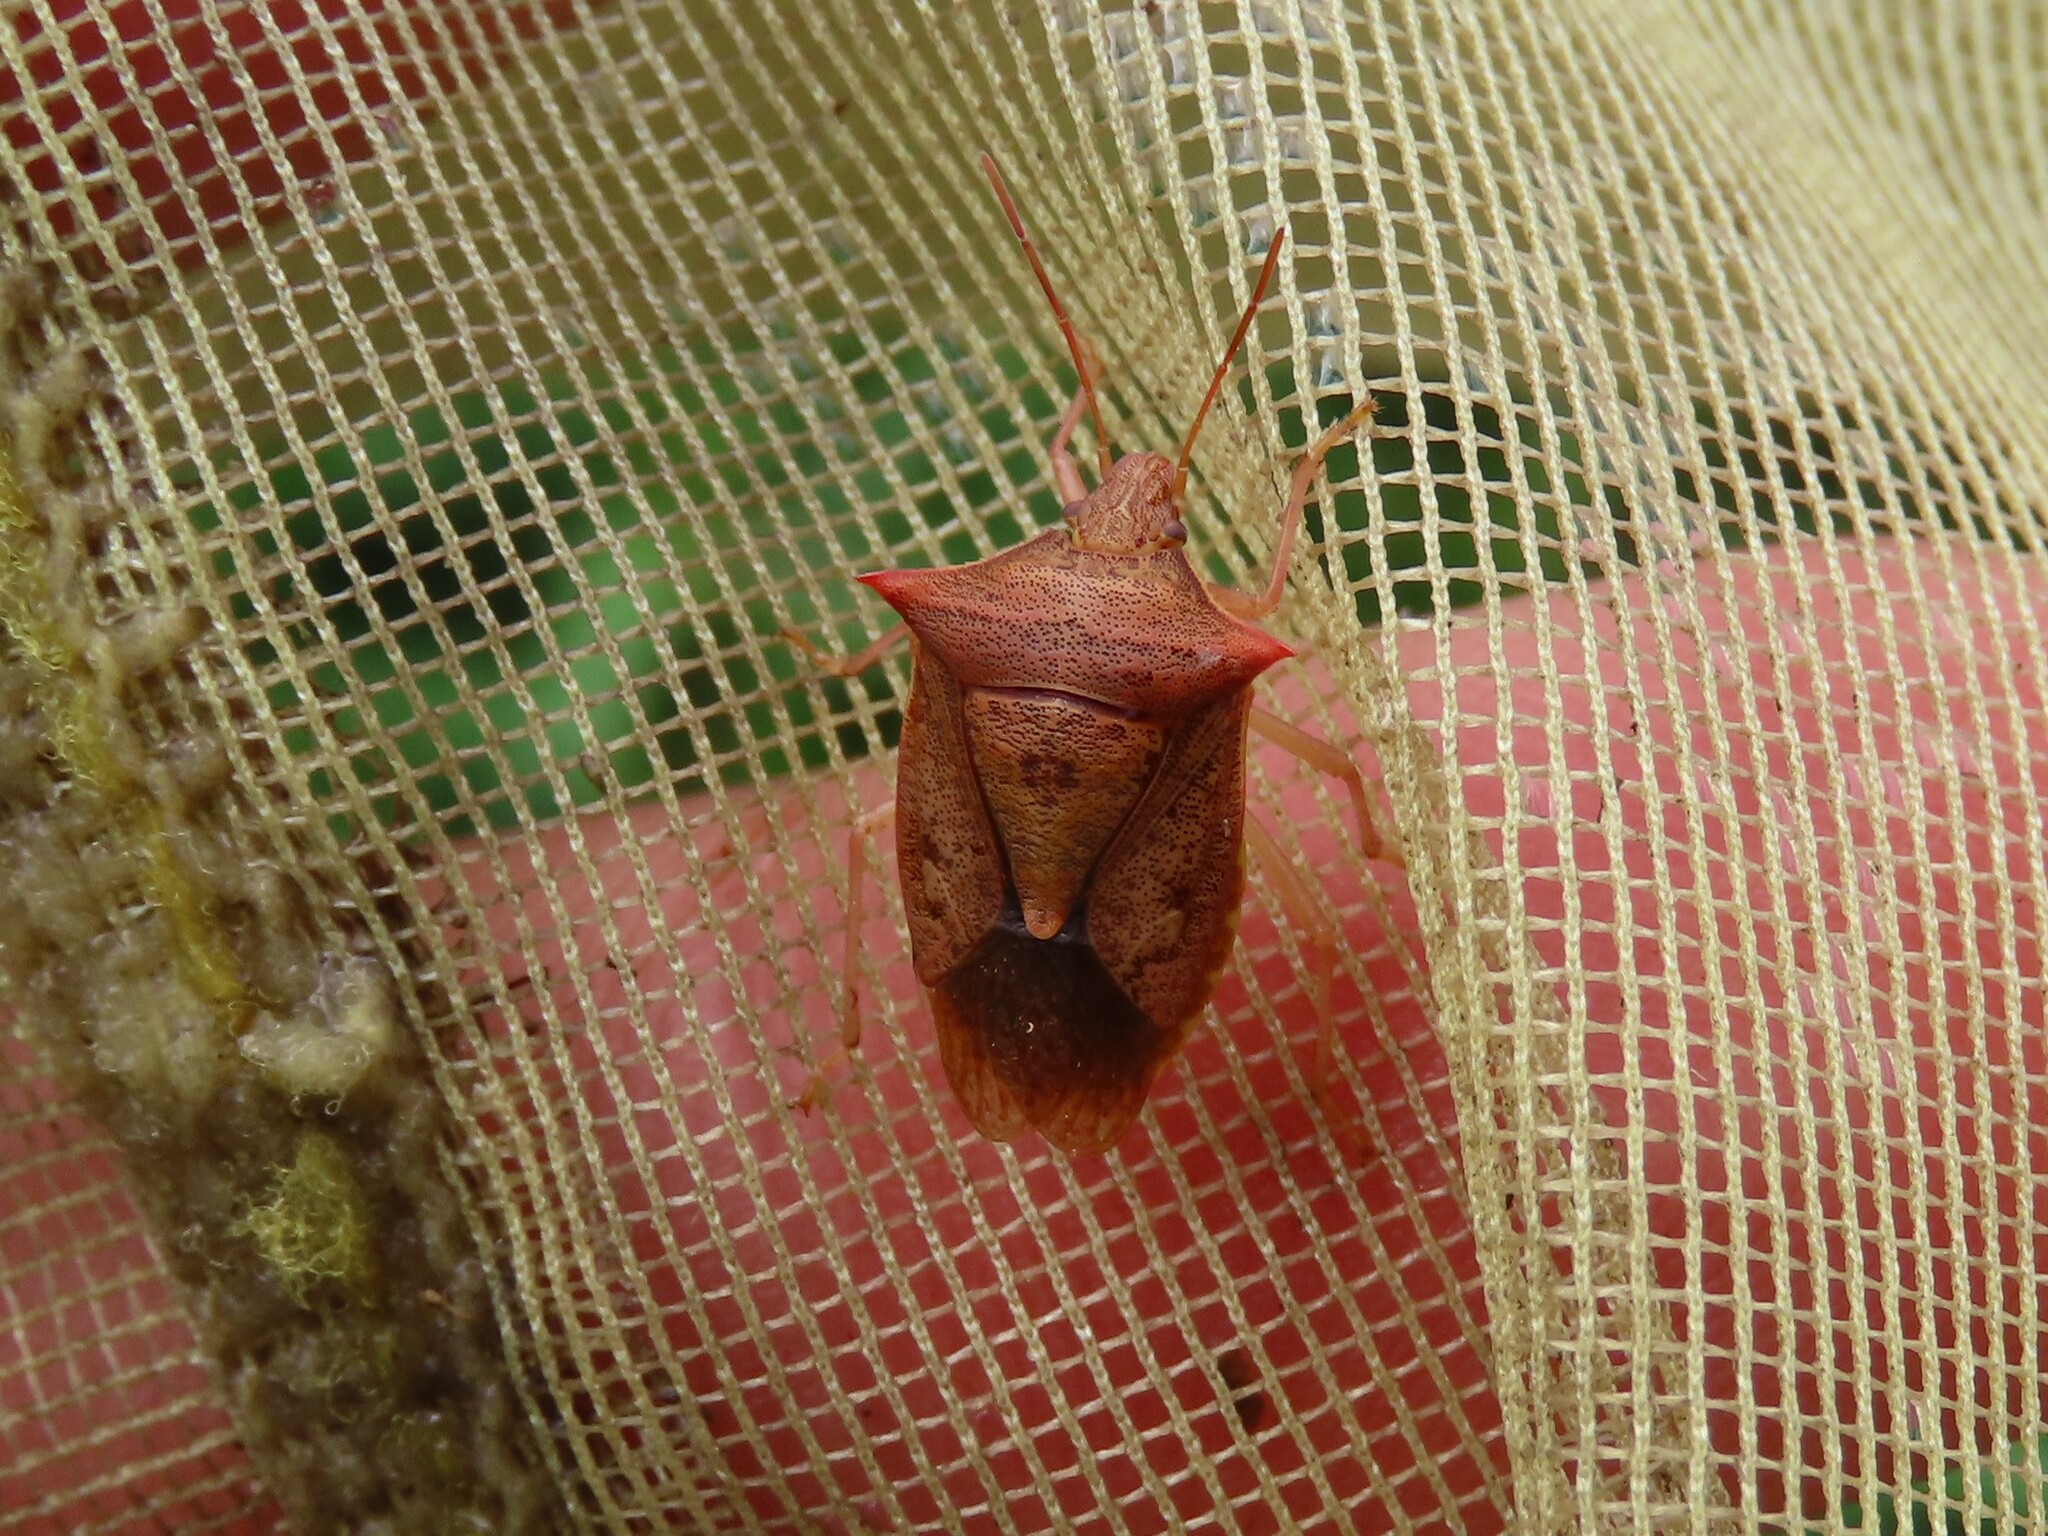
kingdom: Animalia
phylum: Arthropoda
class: Insecta
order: Hemiptera
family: Pentatomidae
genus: Euschistus
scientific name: Euschistus ictericus
